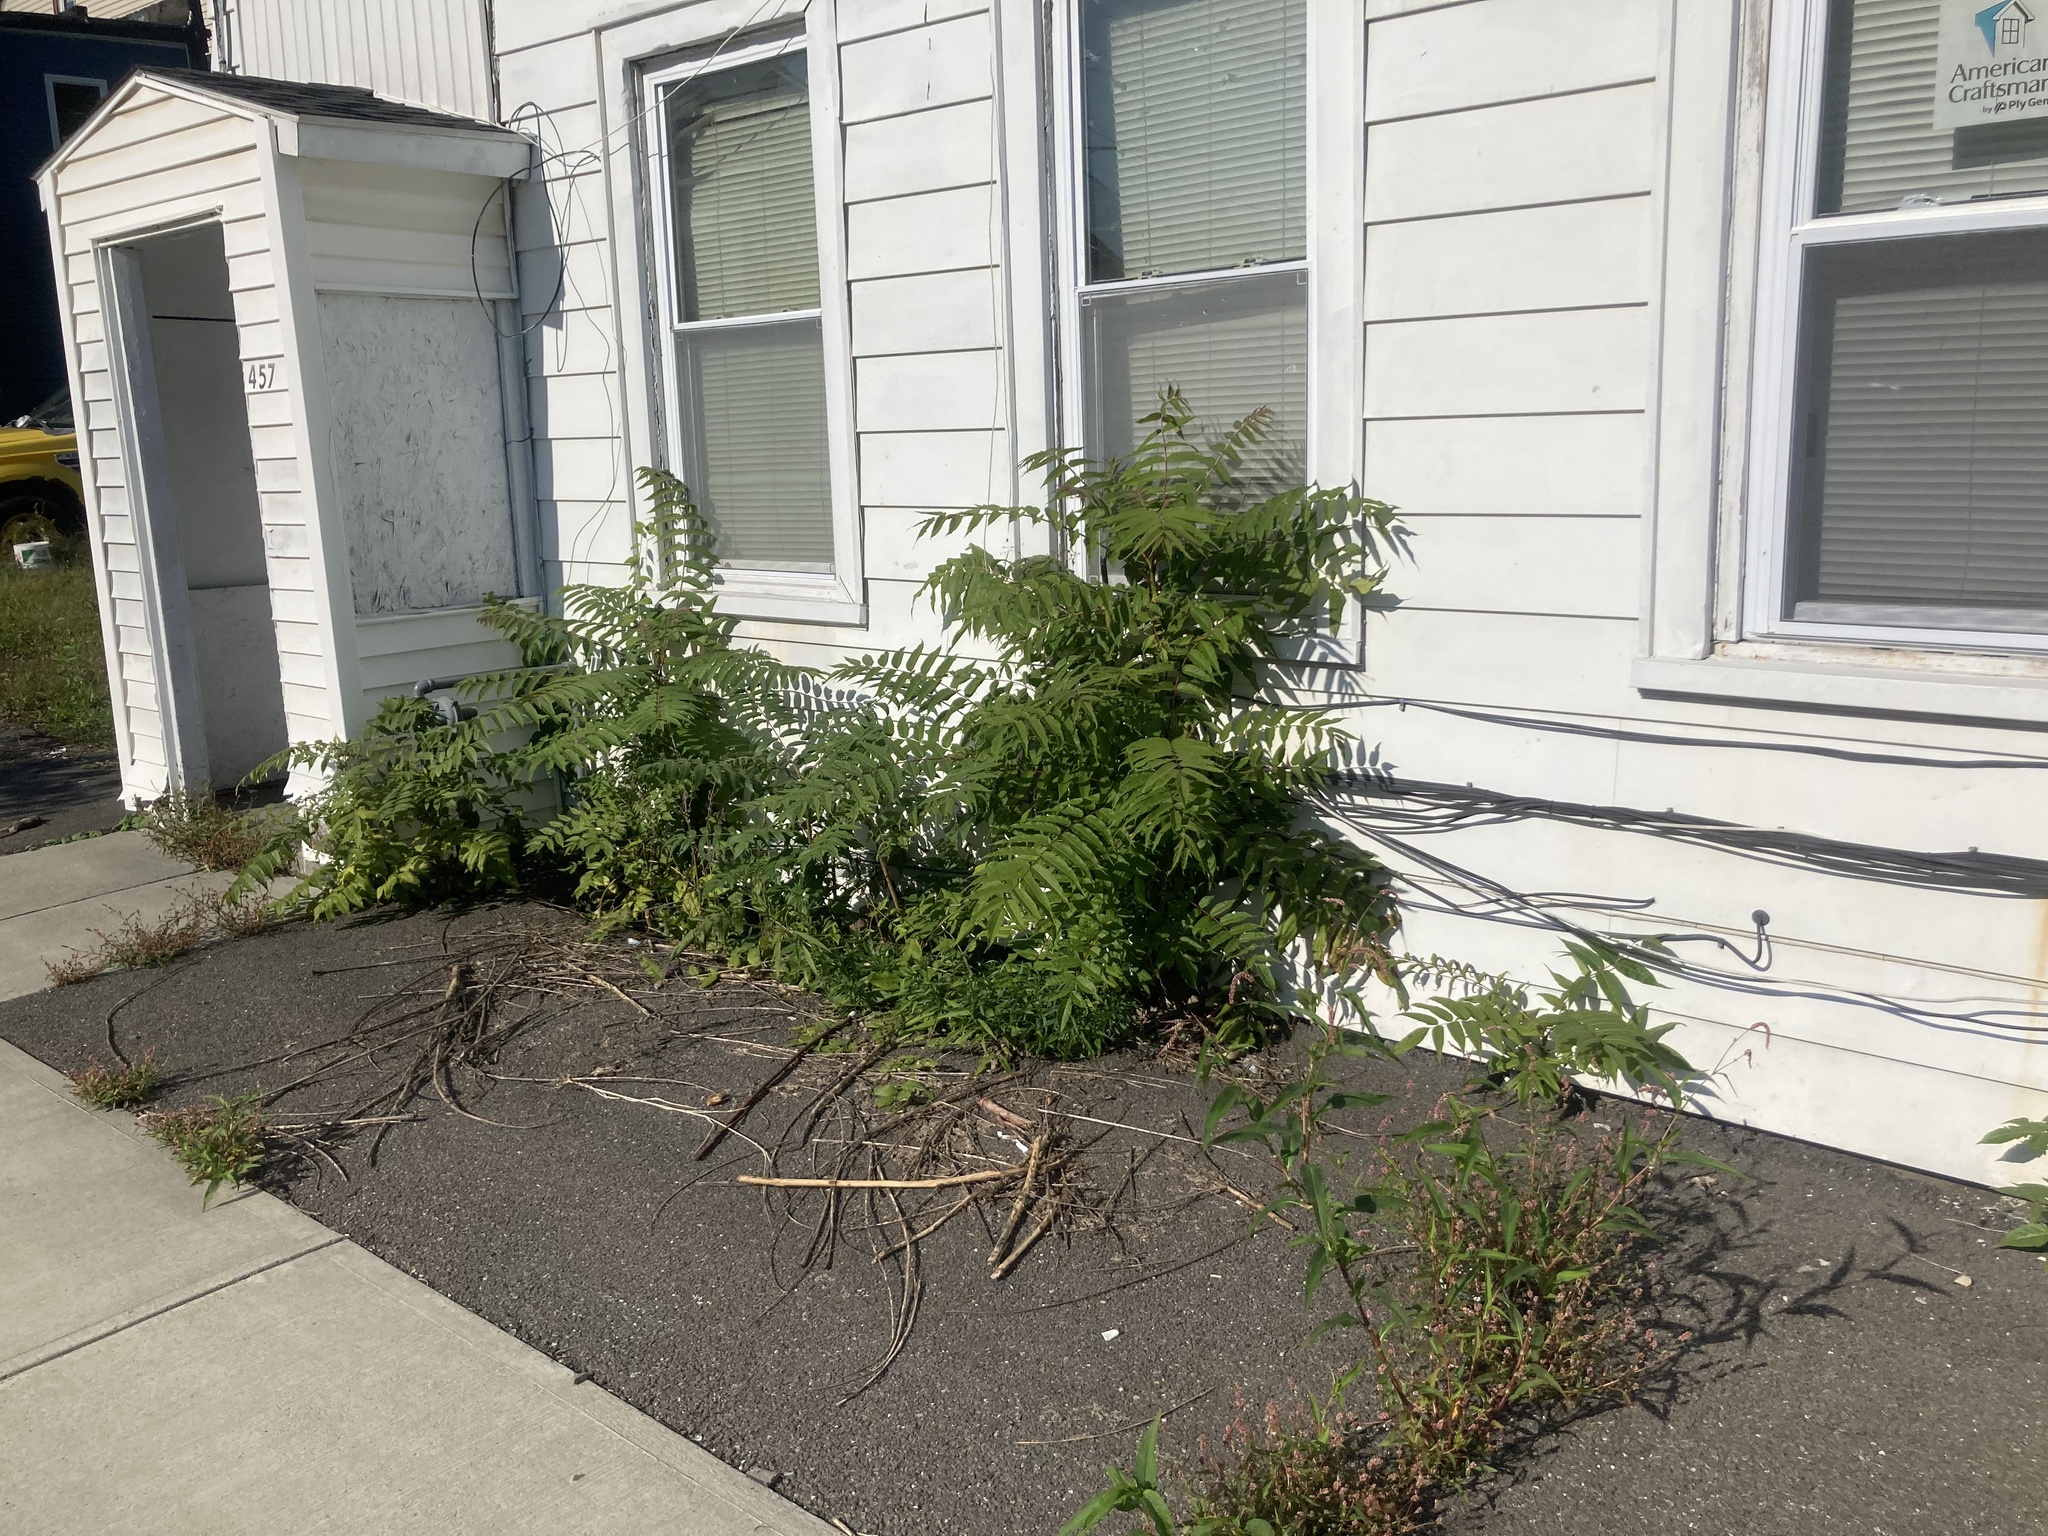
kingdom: Plantae
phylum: Tracheophyta
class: Magnoliopsida
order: Sapindales
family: Simaroubaceae
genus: Ailanthus
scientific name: Ailanthus altissima
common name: Tree-of-heaven
